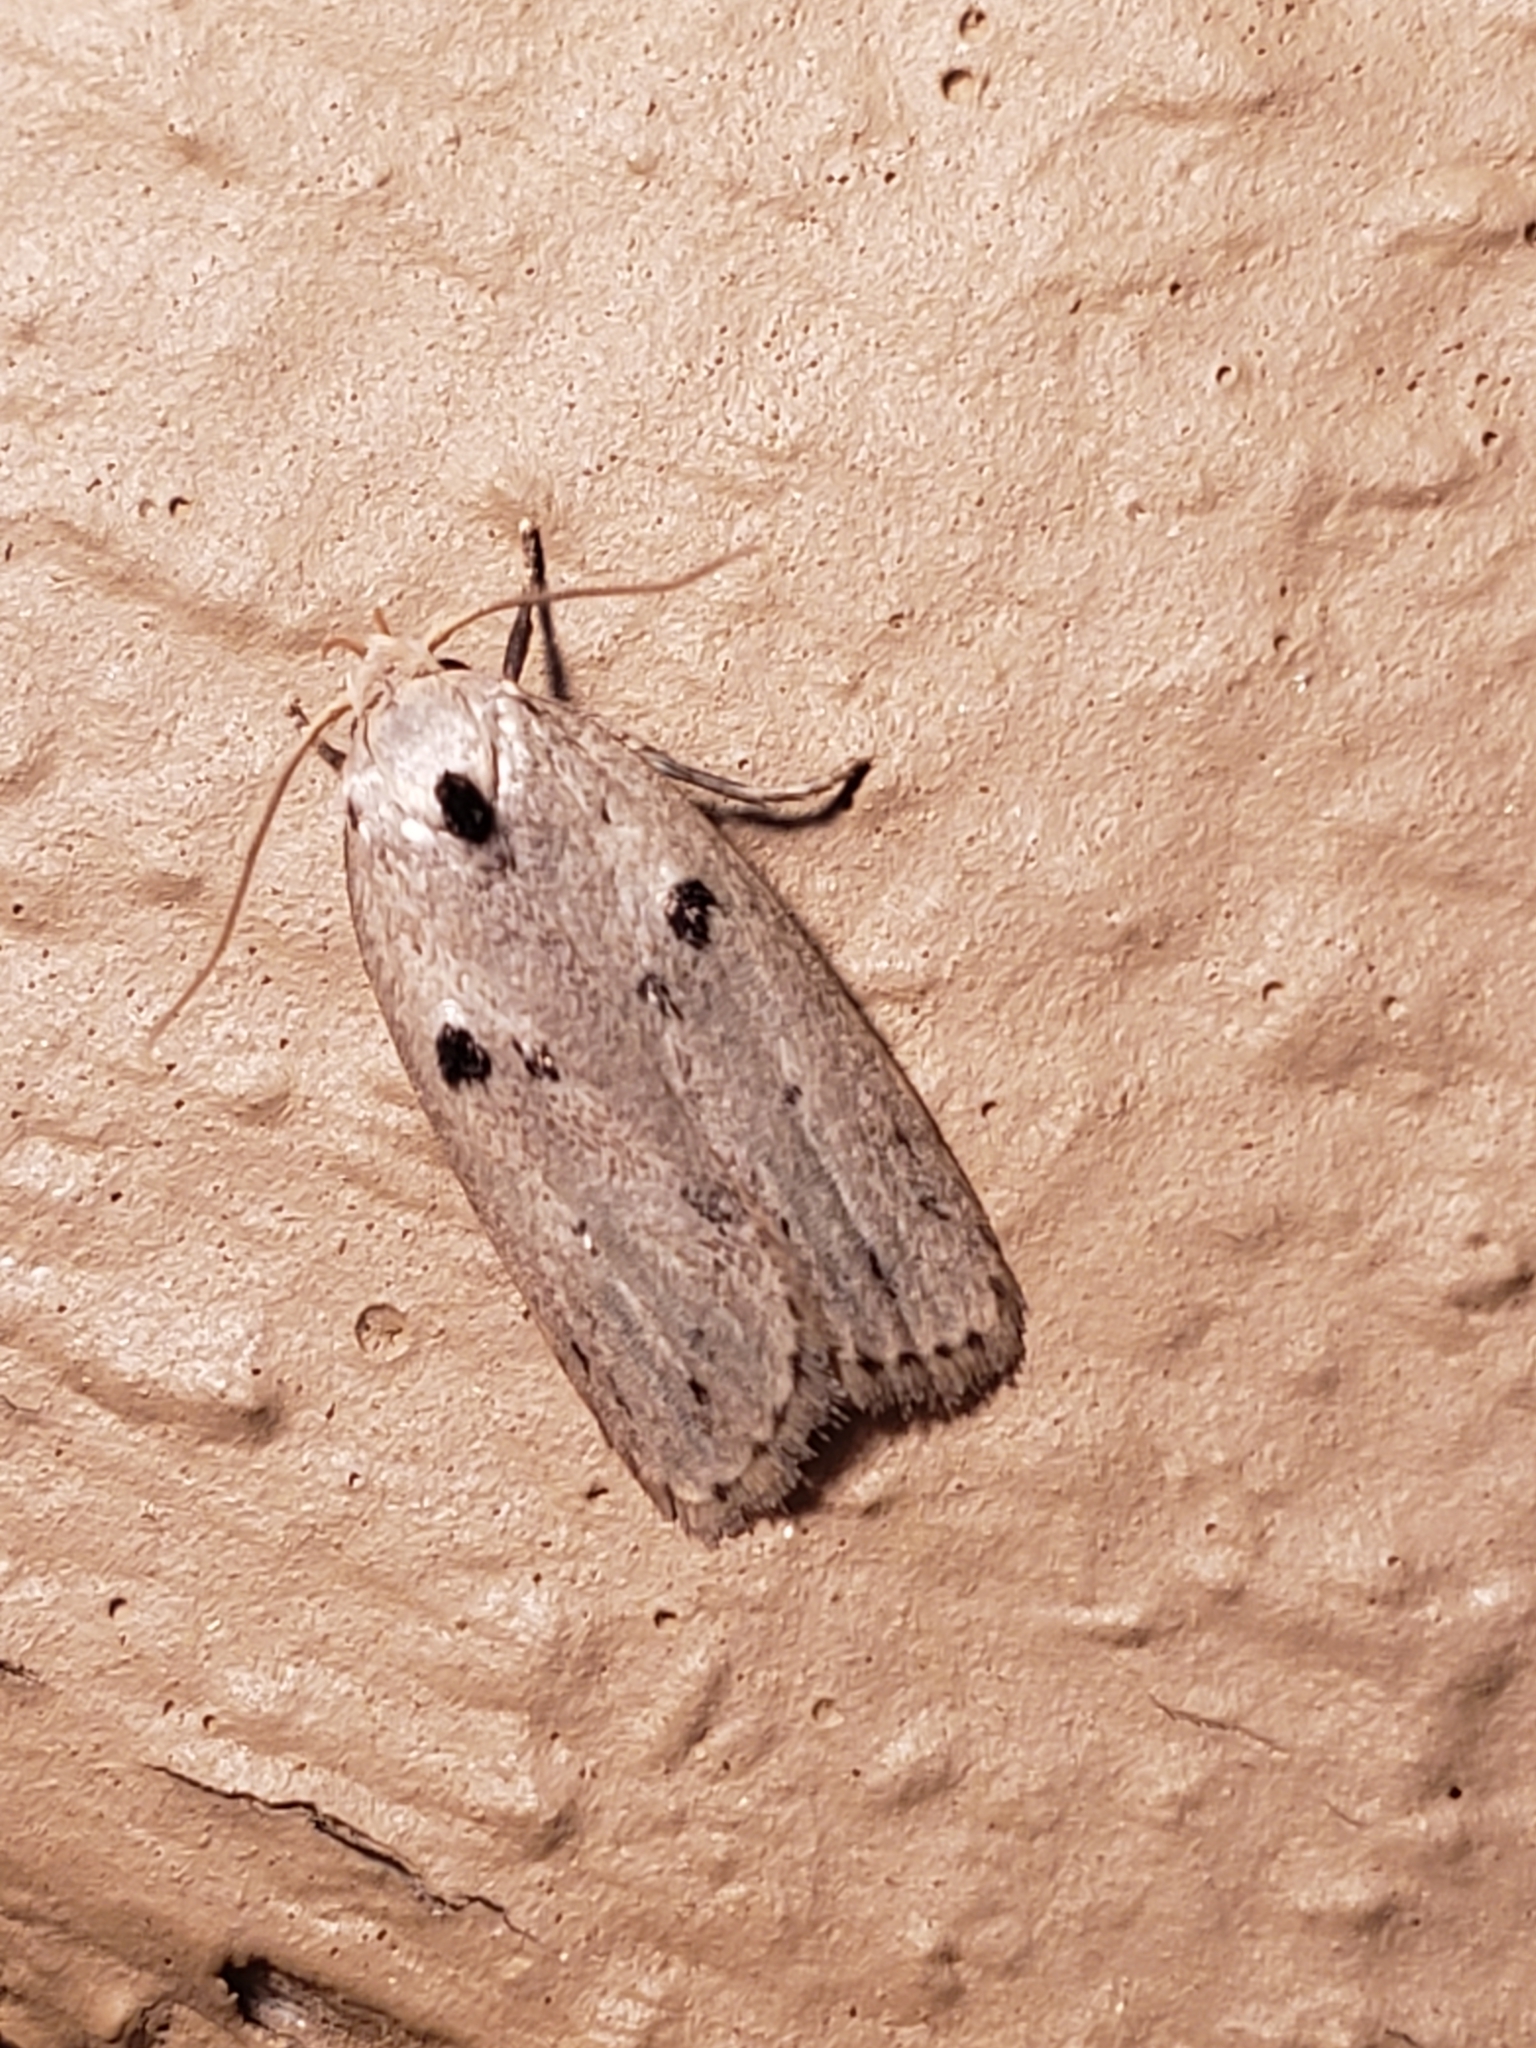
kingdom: Animalia
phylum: Arthropoda
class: Insecta
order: Lepidoptera
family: Peleopodidae
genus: Scythropiodes
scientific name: Scythropiodes issikii
